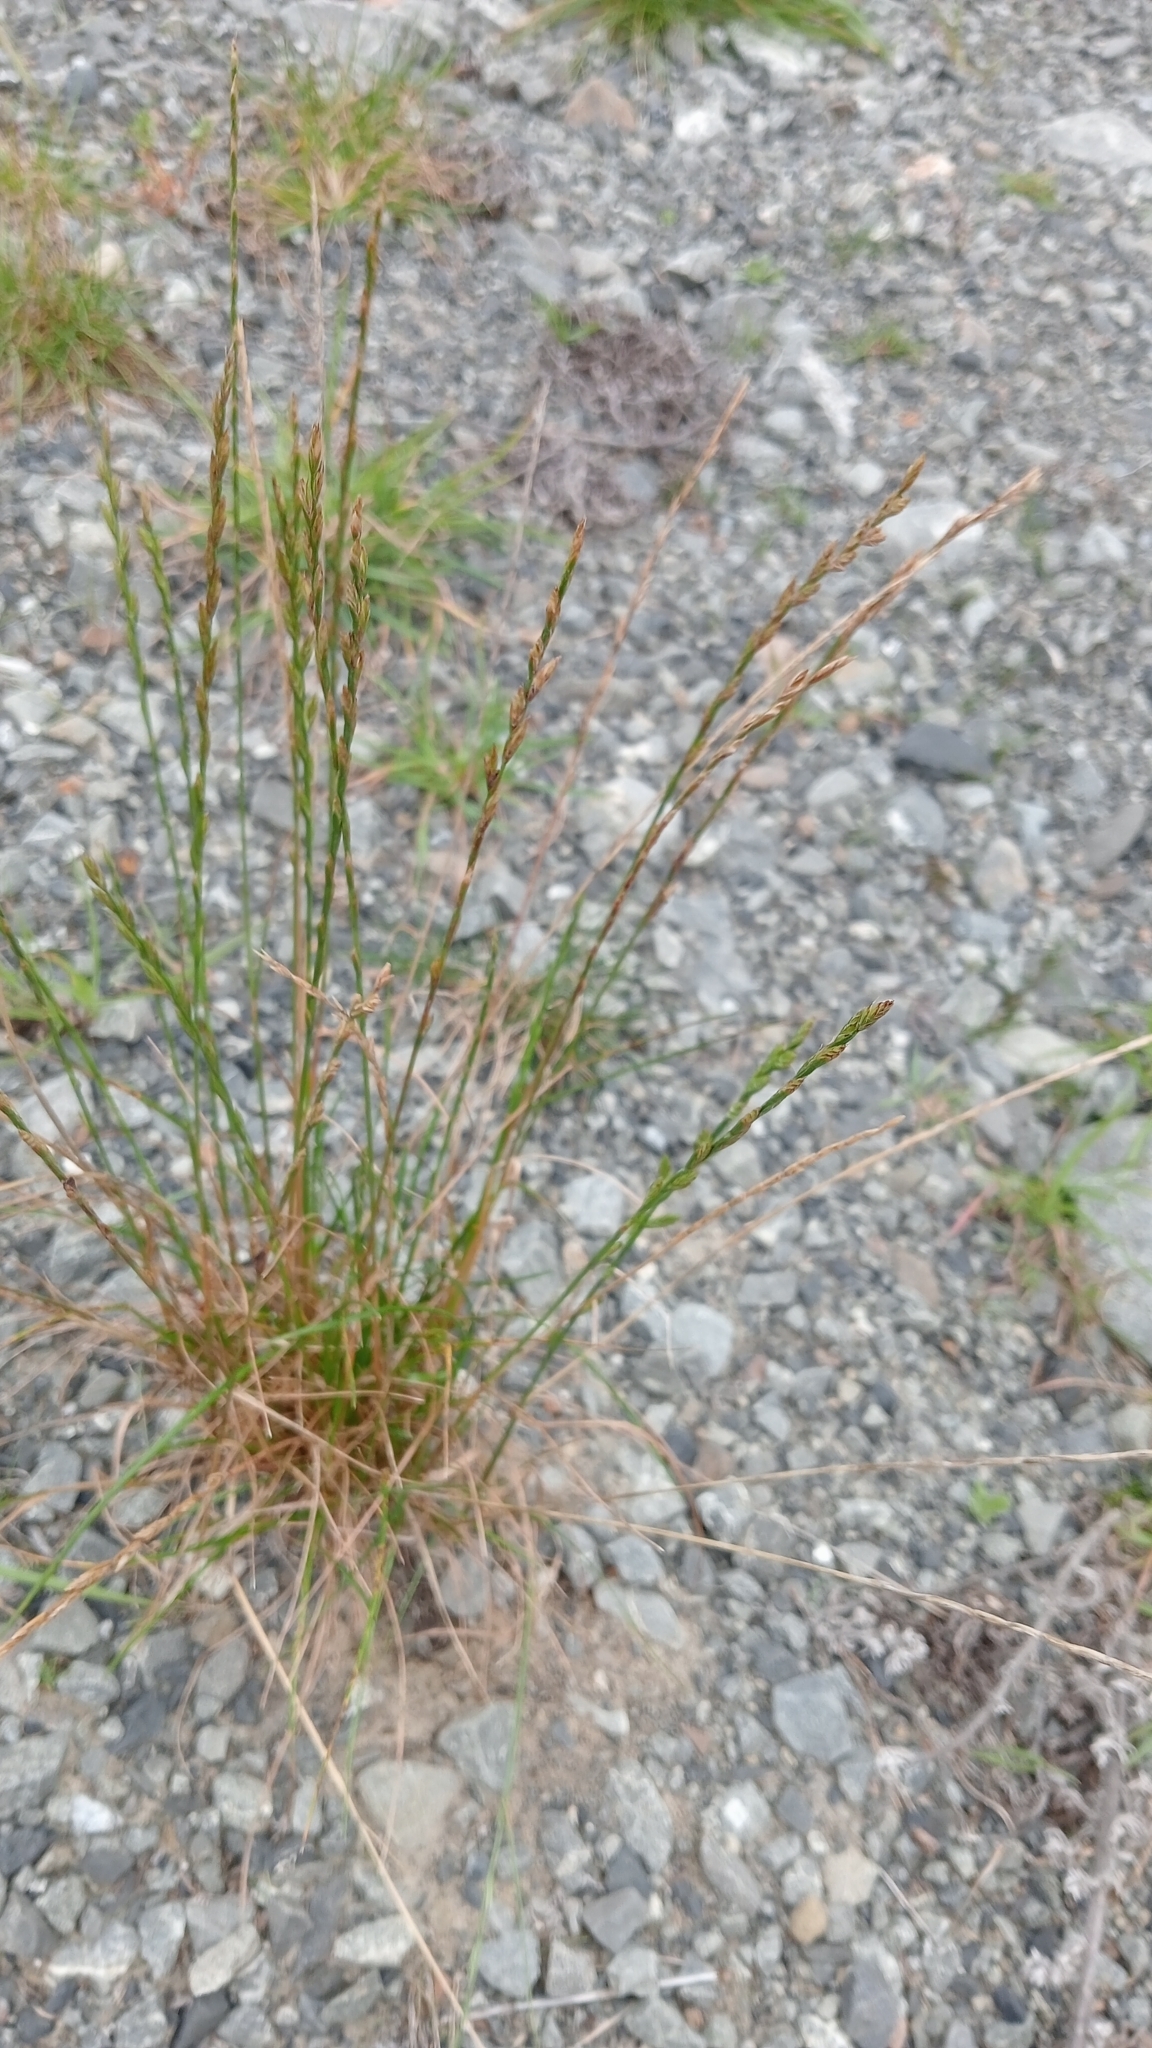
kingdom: Plantae
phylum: Tracheophyta
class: Liliopsida
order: Poales
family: Poaceae
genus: Lolium
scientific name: Lolium multiflorum
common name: Annual ryegrass
